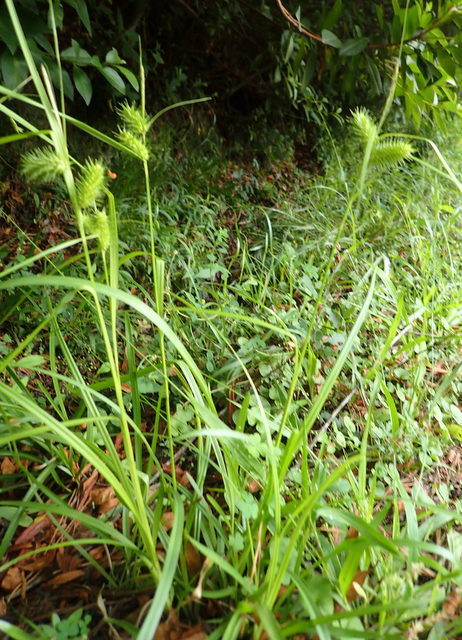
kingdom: Plantae
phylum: Tracheophyta
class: Liliopsida
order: Poales
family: Cyperaceae
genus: Carex
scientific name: Carex lurida
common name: Sallow sedge
